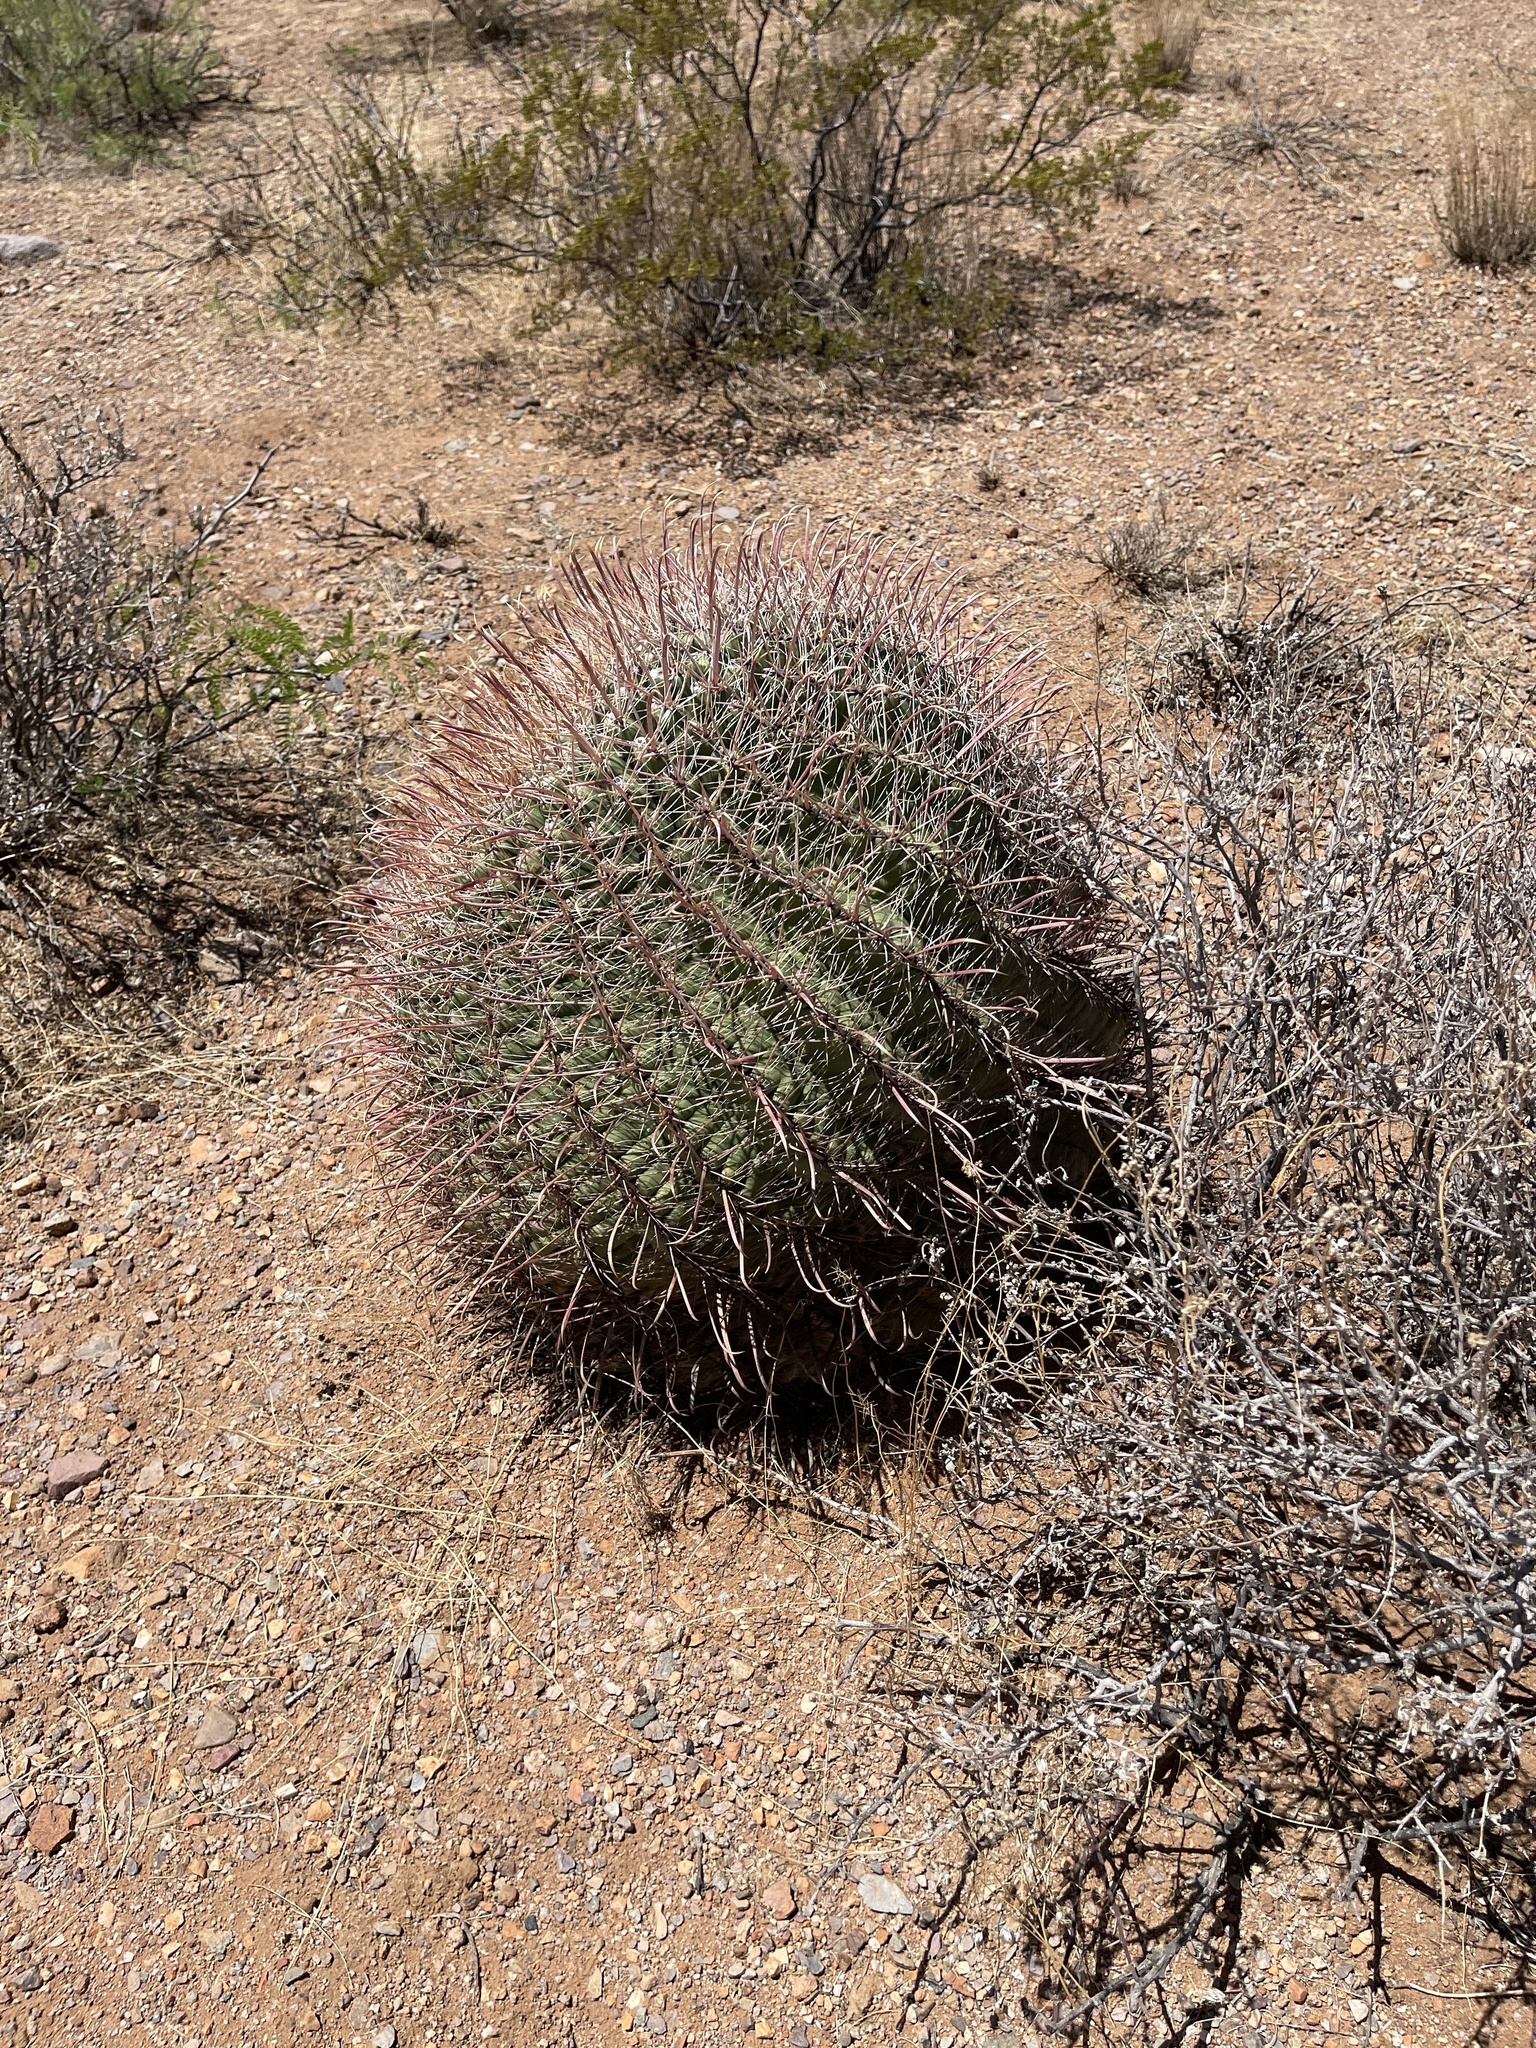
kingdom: Plantae
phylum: Tracheophyta
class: Magnoliopsida
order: Caryophyllales
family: Cactaceae
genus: Ferocactus
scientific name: Ferocactus wislizeni
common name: Candy barrel cactus
